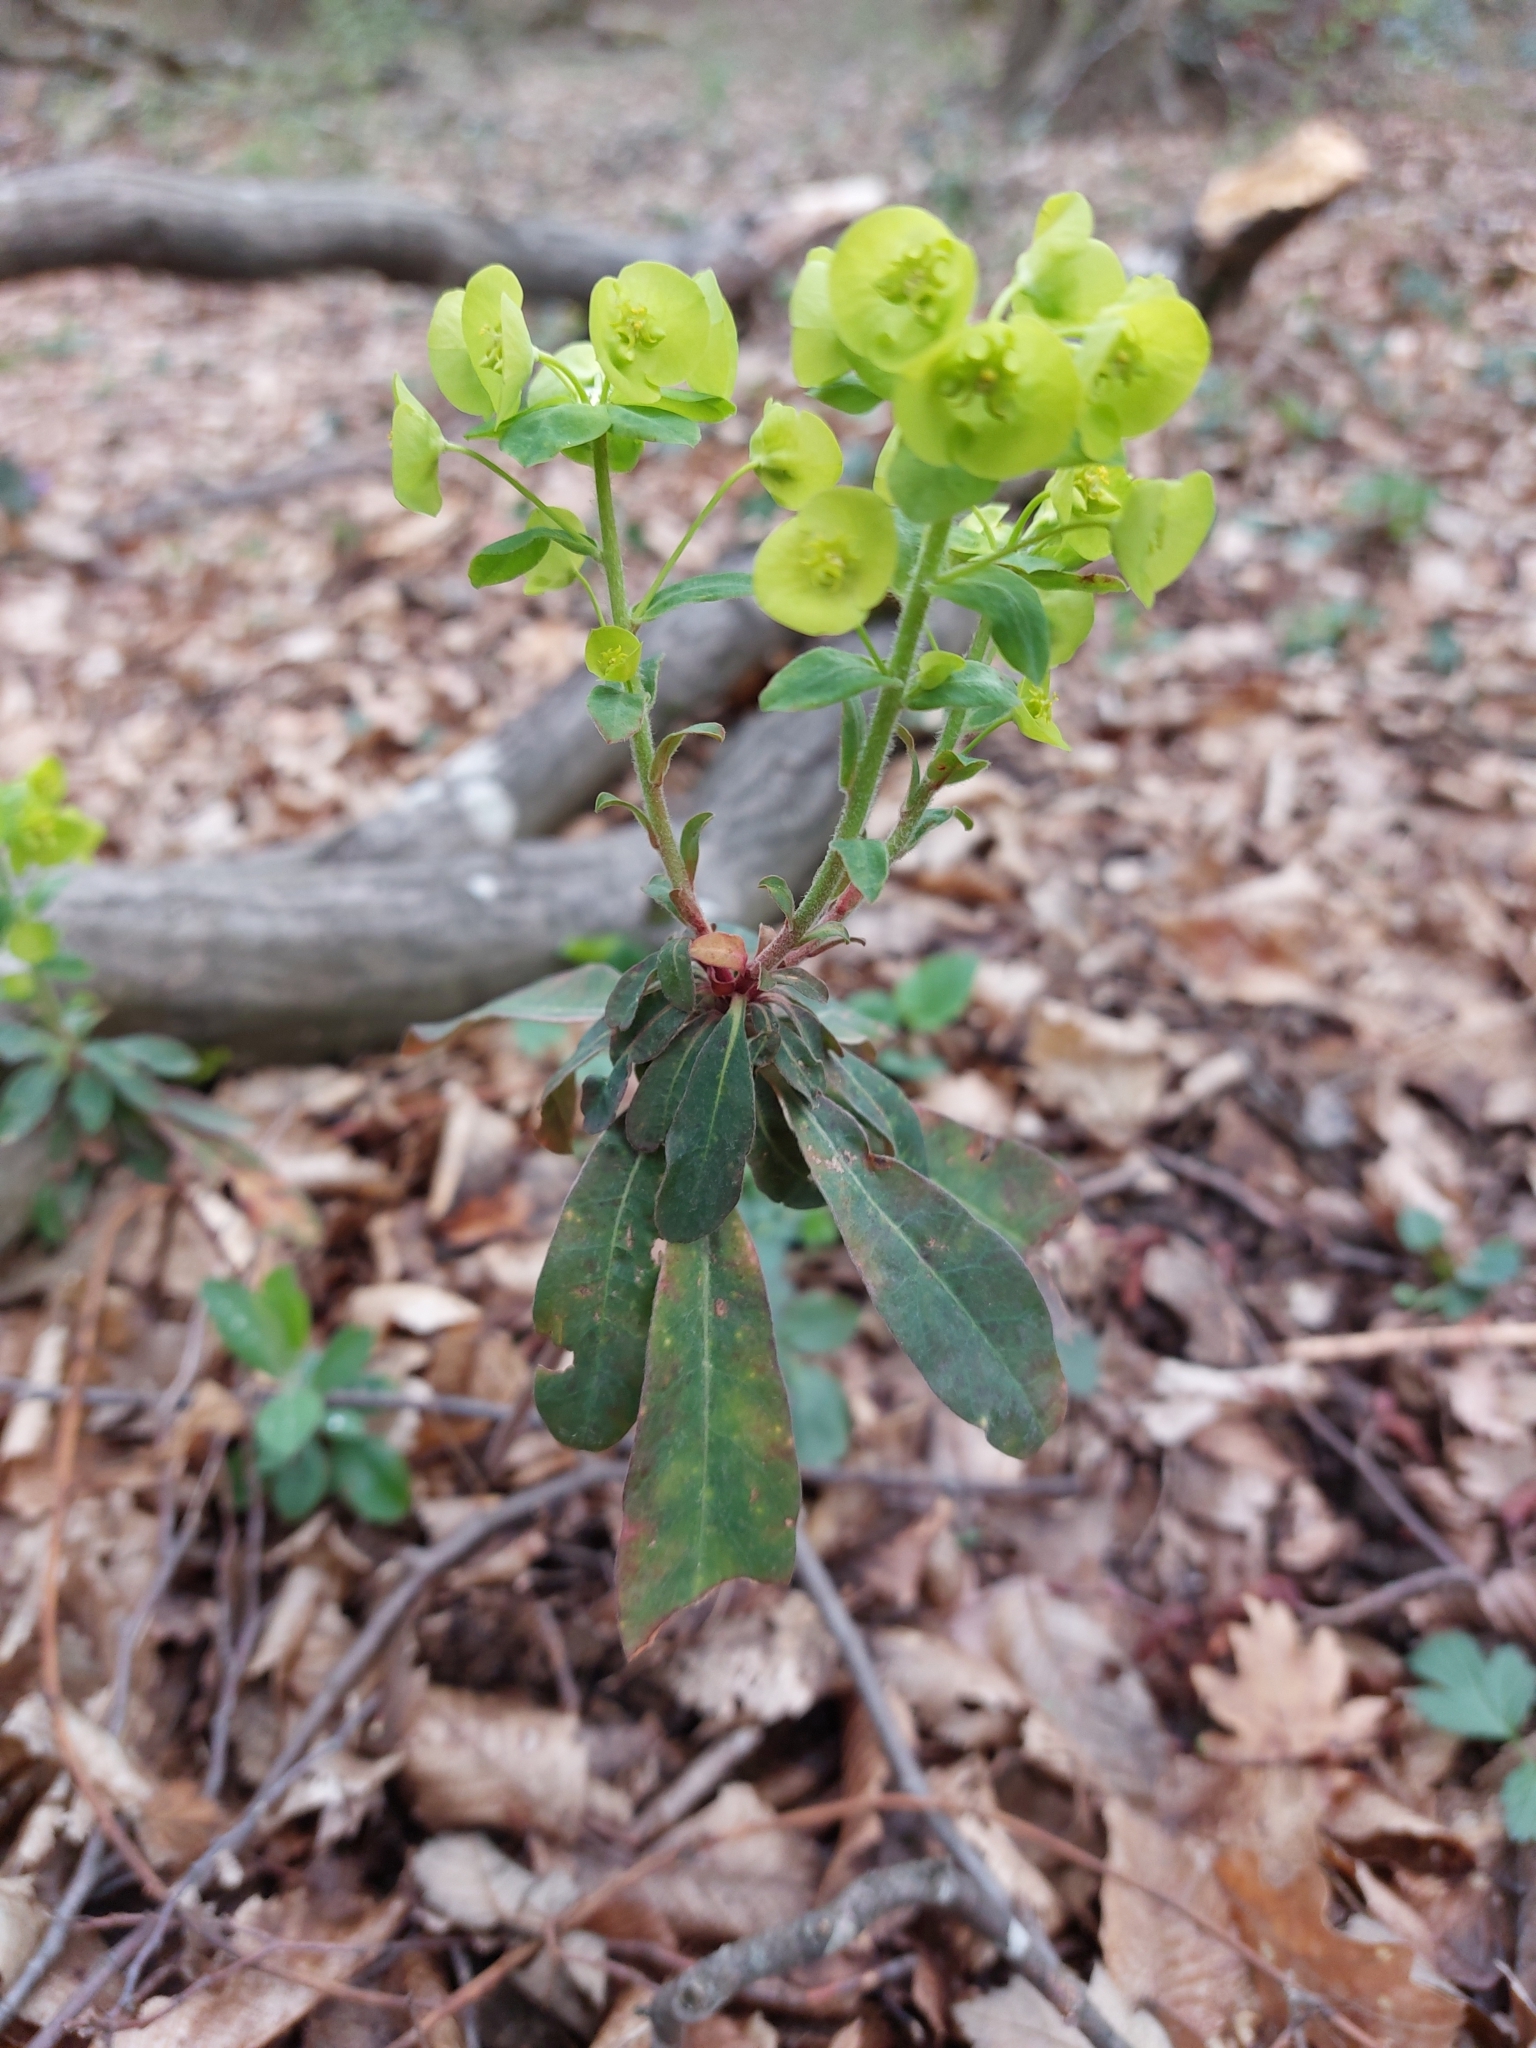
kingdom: Plantae
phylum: Tracheophyta
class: Magnoliopsida
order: Malpighiales
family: Euphorbiaceae
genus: Euphorbia
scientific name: Euphorbia amygdaloides
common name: Wood spurge
